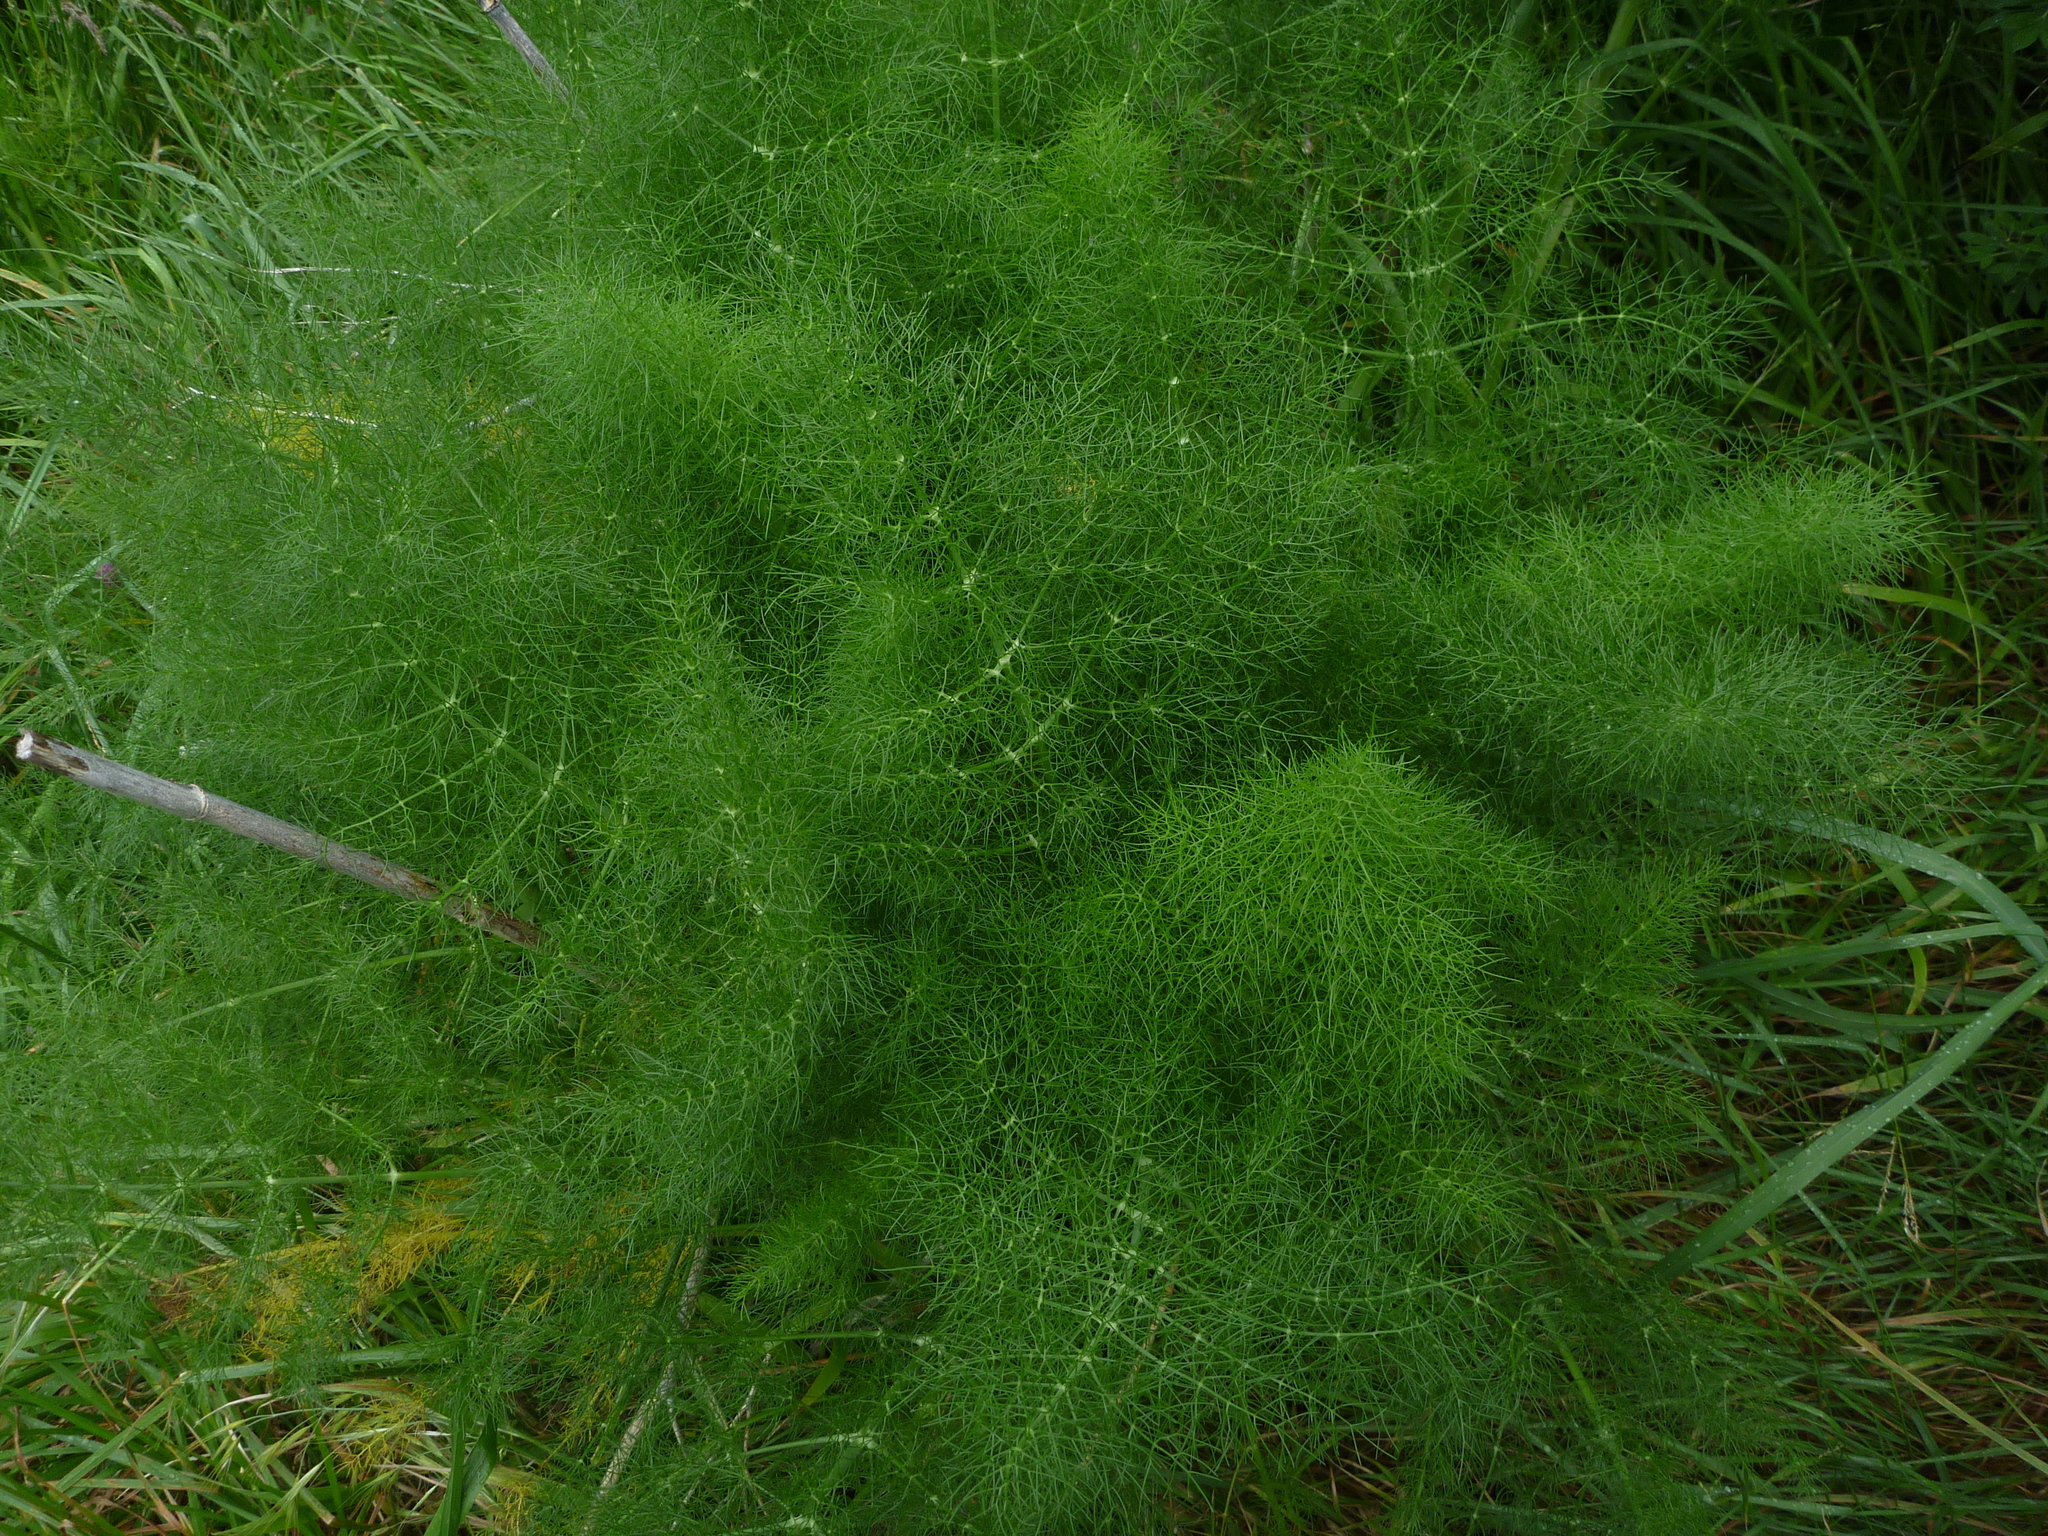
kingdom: Plantae
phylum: Tracheophyta
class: Magnoliopsida
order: Apiales
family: Apiaceae
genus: Foeniculum
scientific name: Foeniculum vulgare
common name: Fennel
